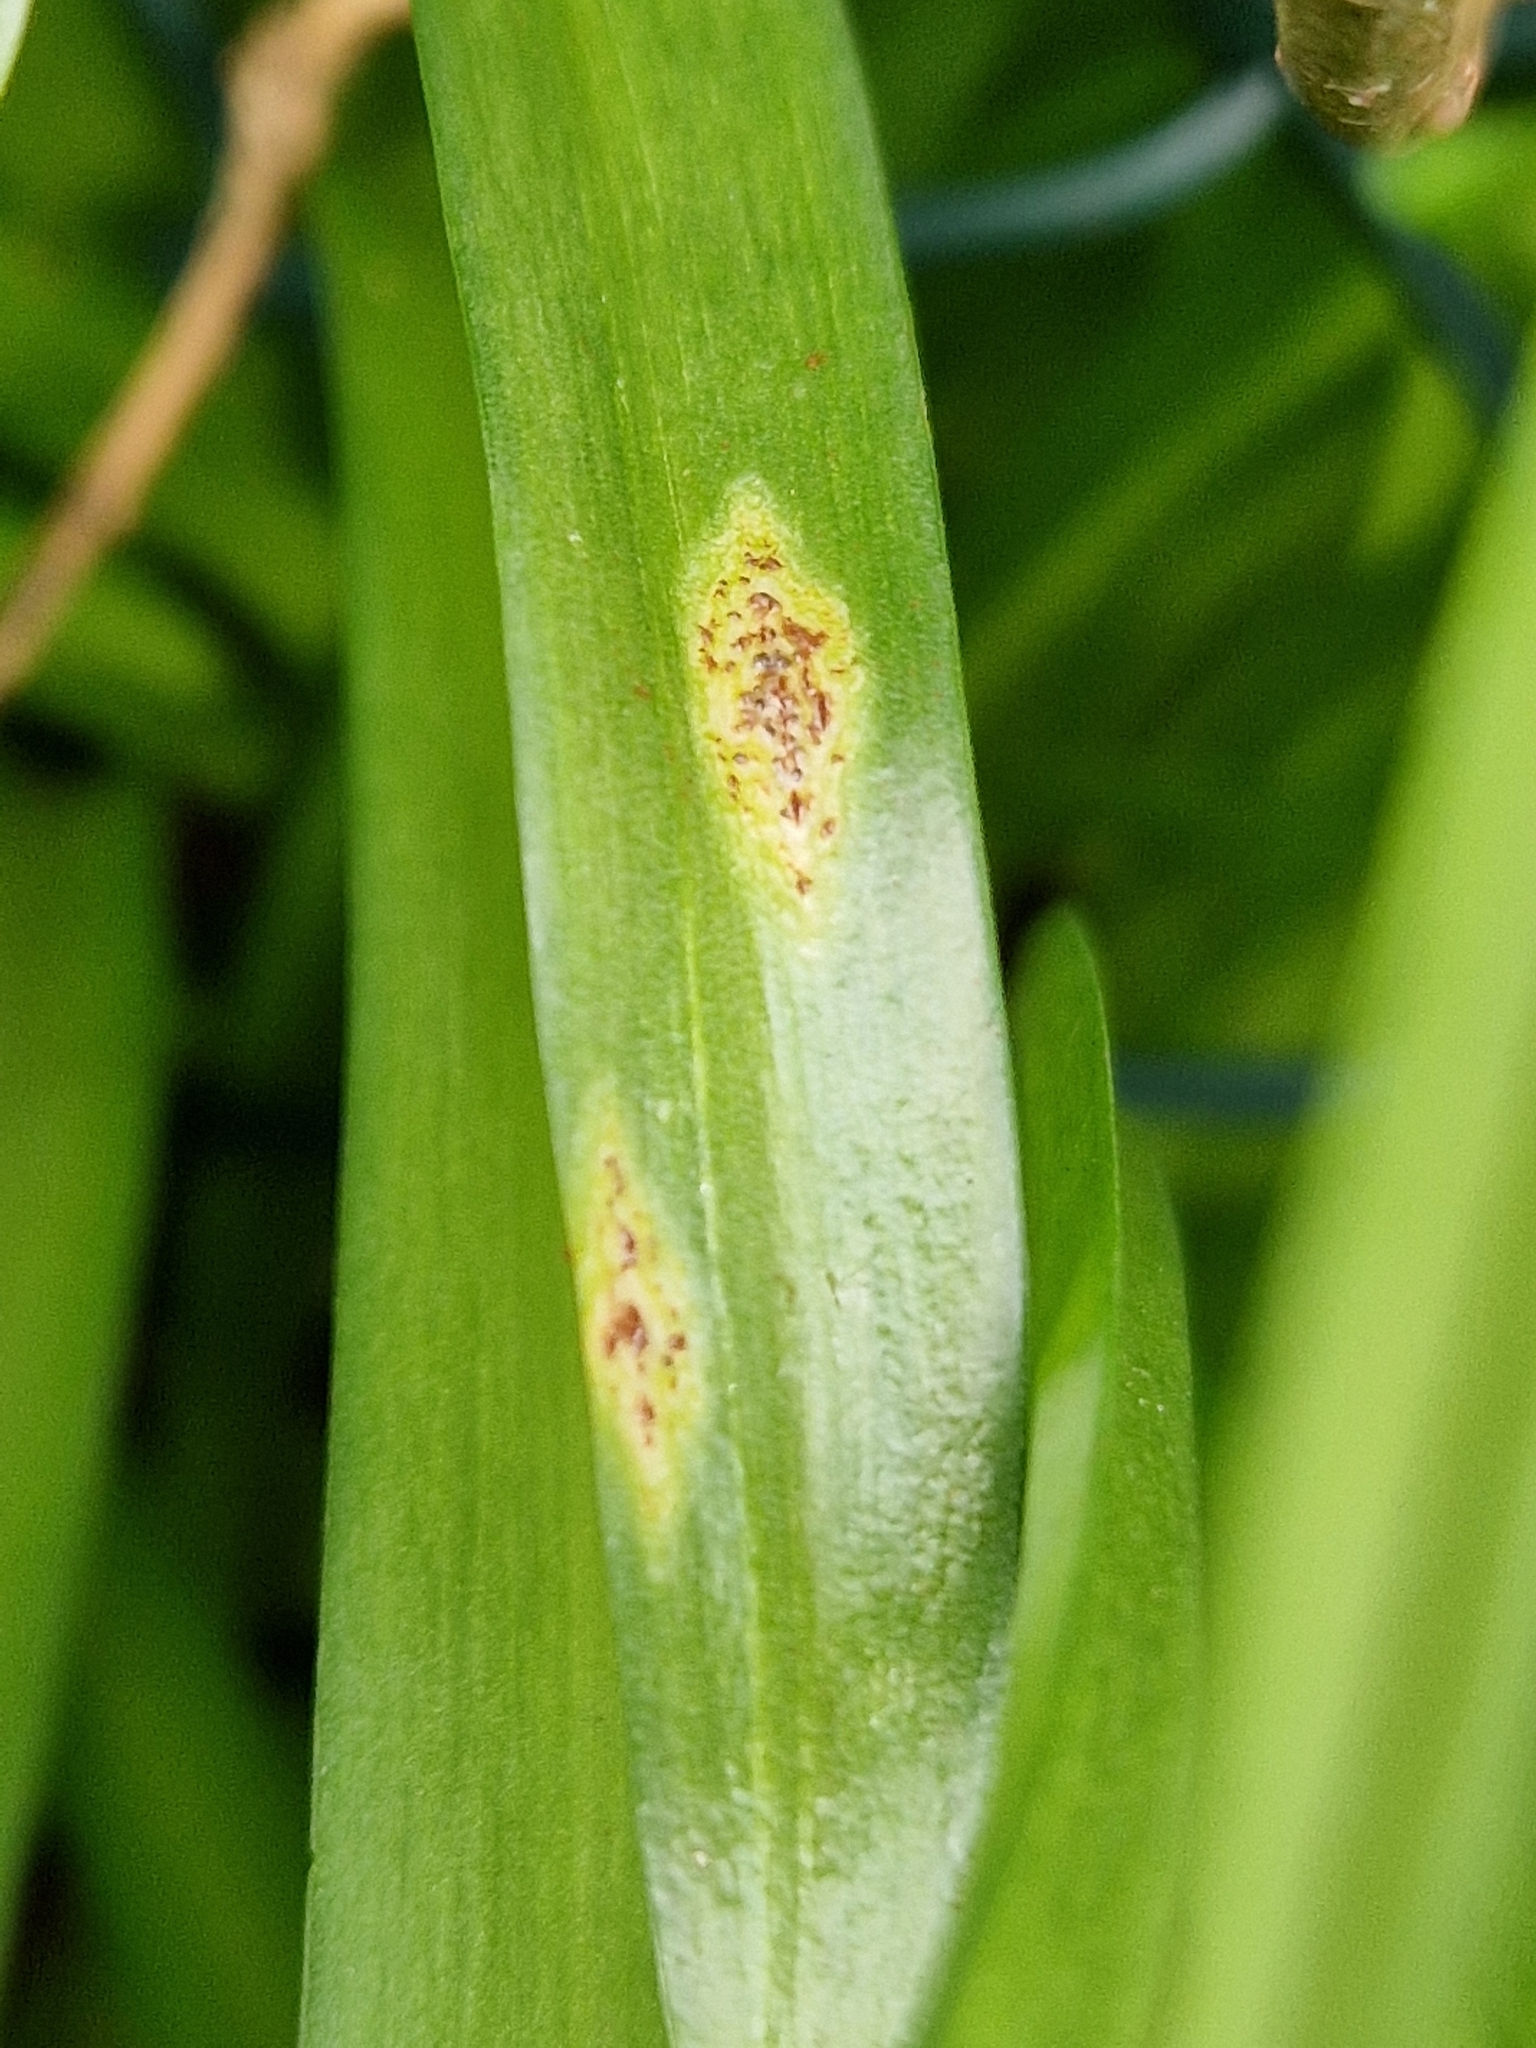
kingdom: Fungi
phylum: Basidiomycota
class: Pucciniomycetes
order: Pucciniales
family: Pucciniaceae
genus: Uromyces
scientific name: Uromyces hyacinthi
